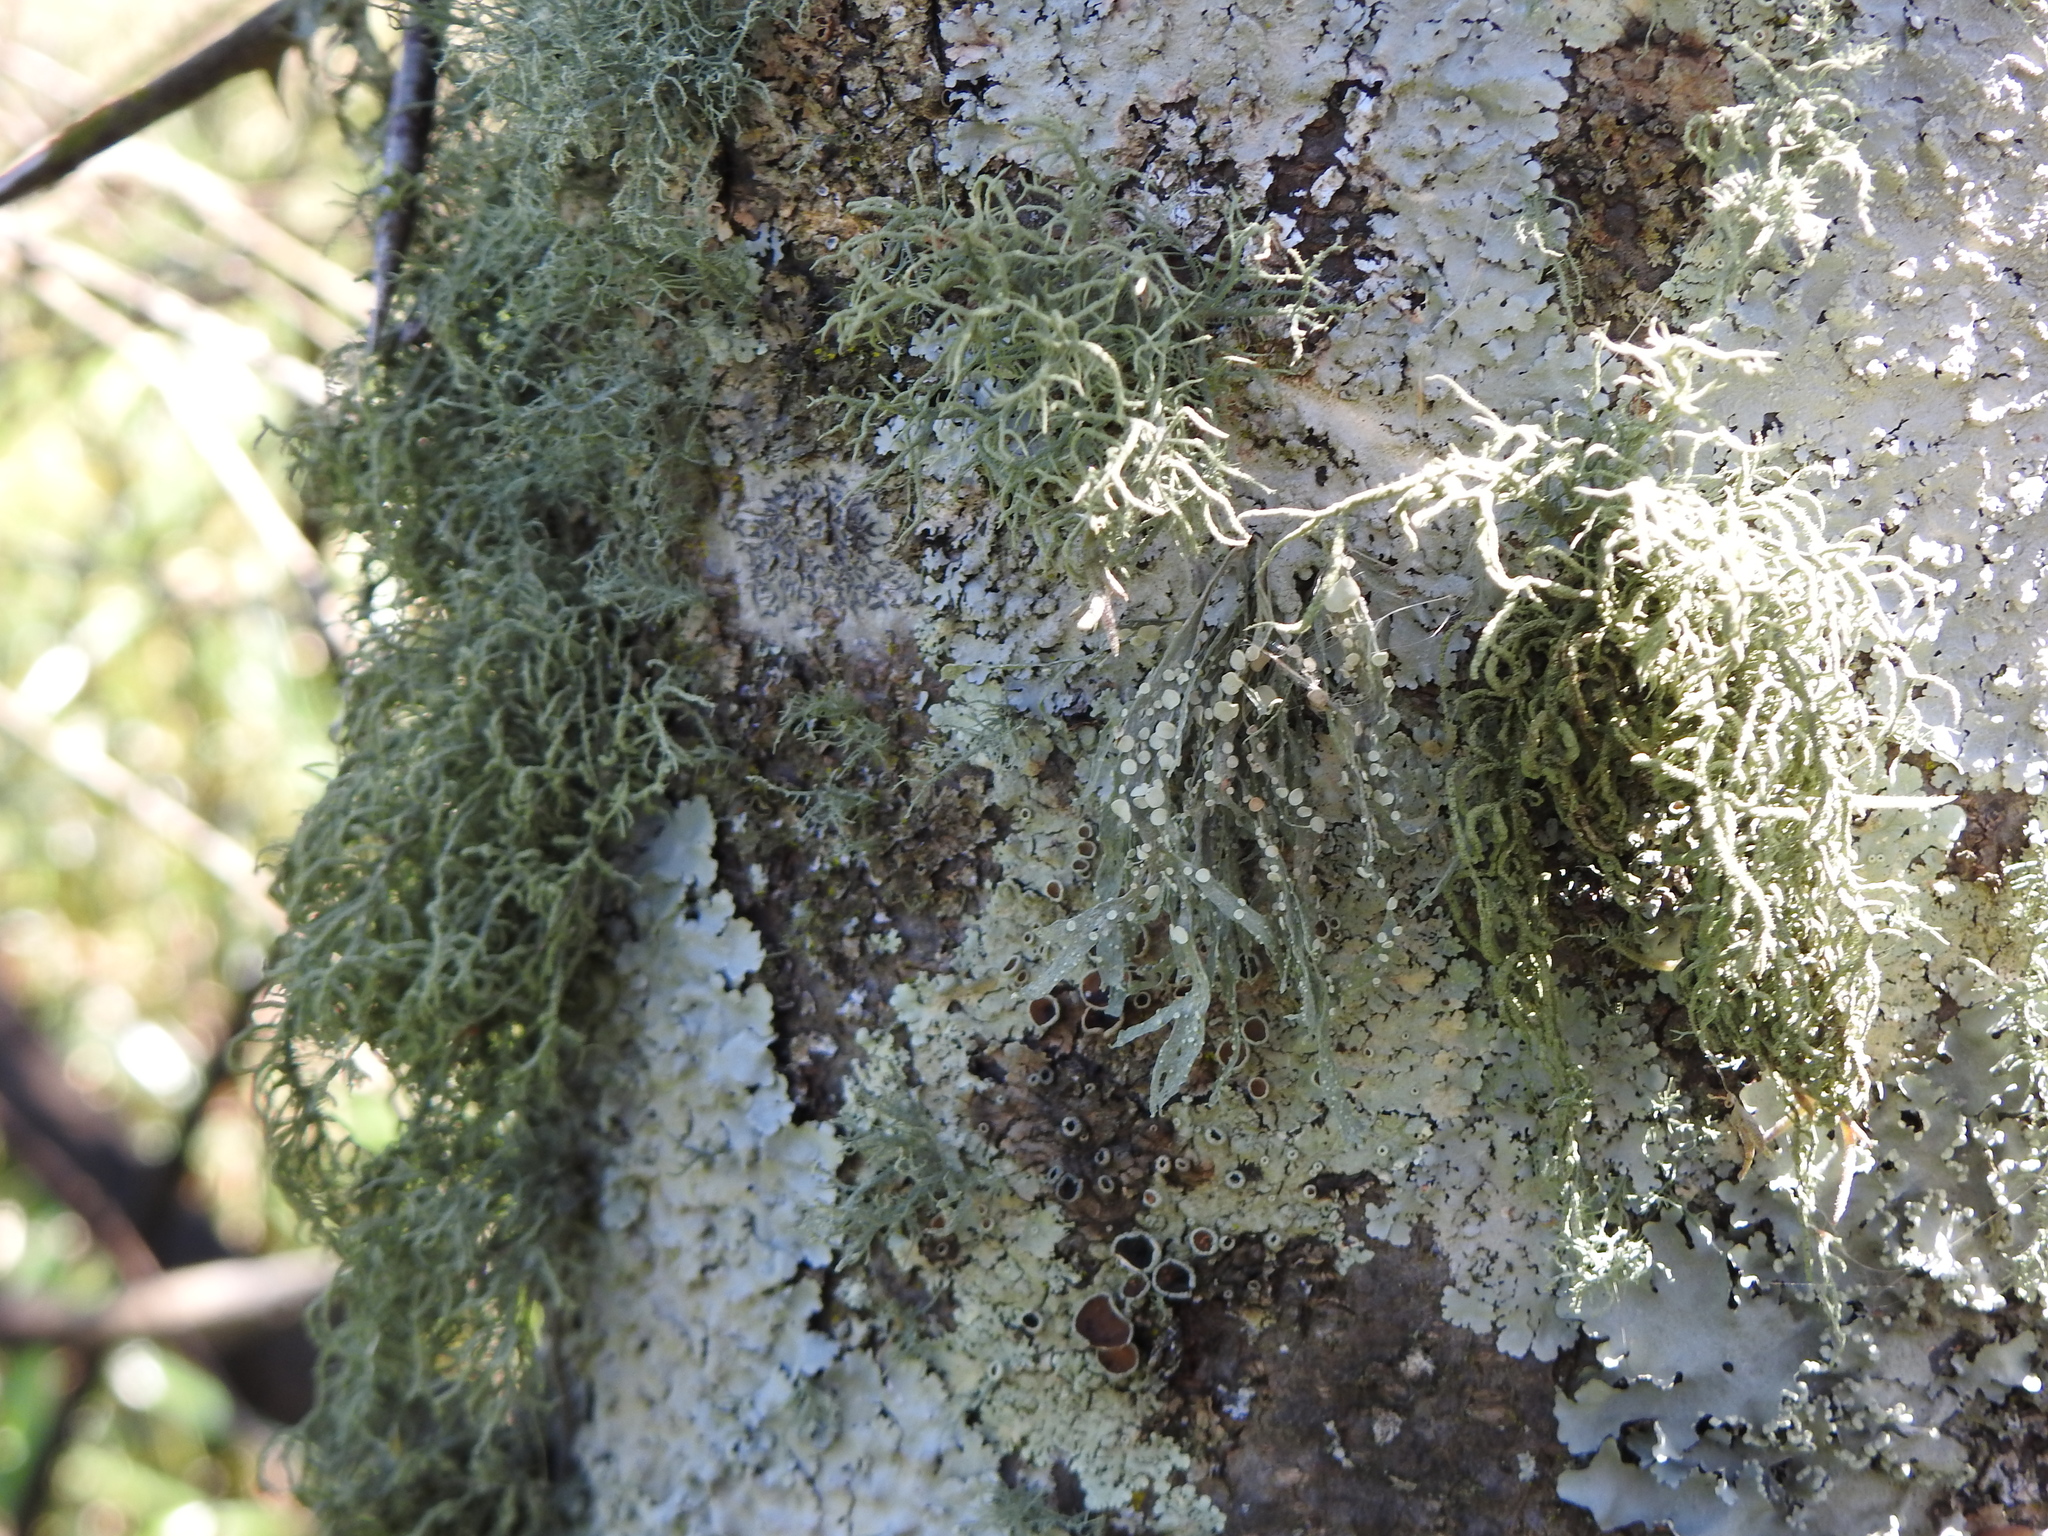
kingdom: Fungi
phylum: Ascomycota
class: Lecanoromycetes
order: Lecanorales
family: Ramalinaceae
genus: Ramalina
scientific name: Ramalina celastri
